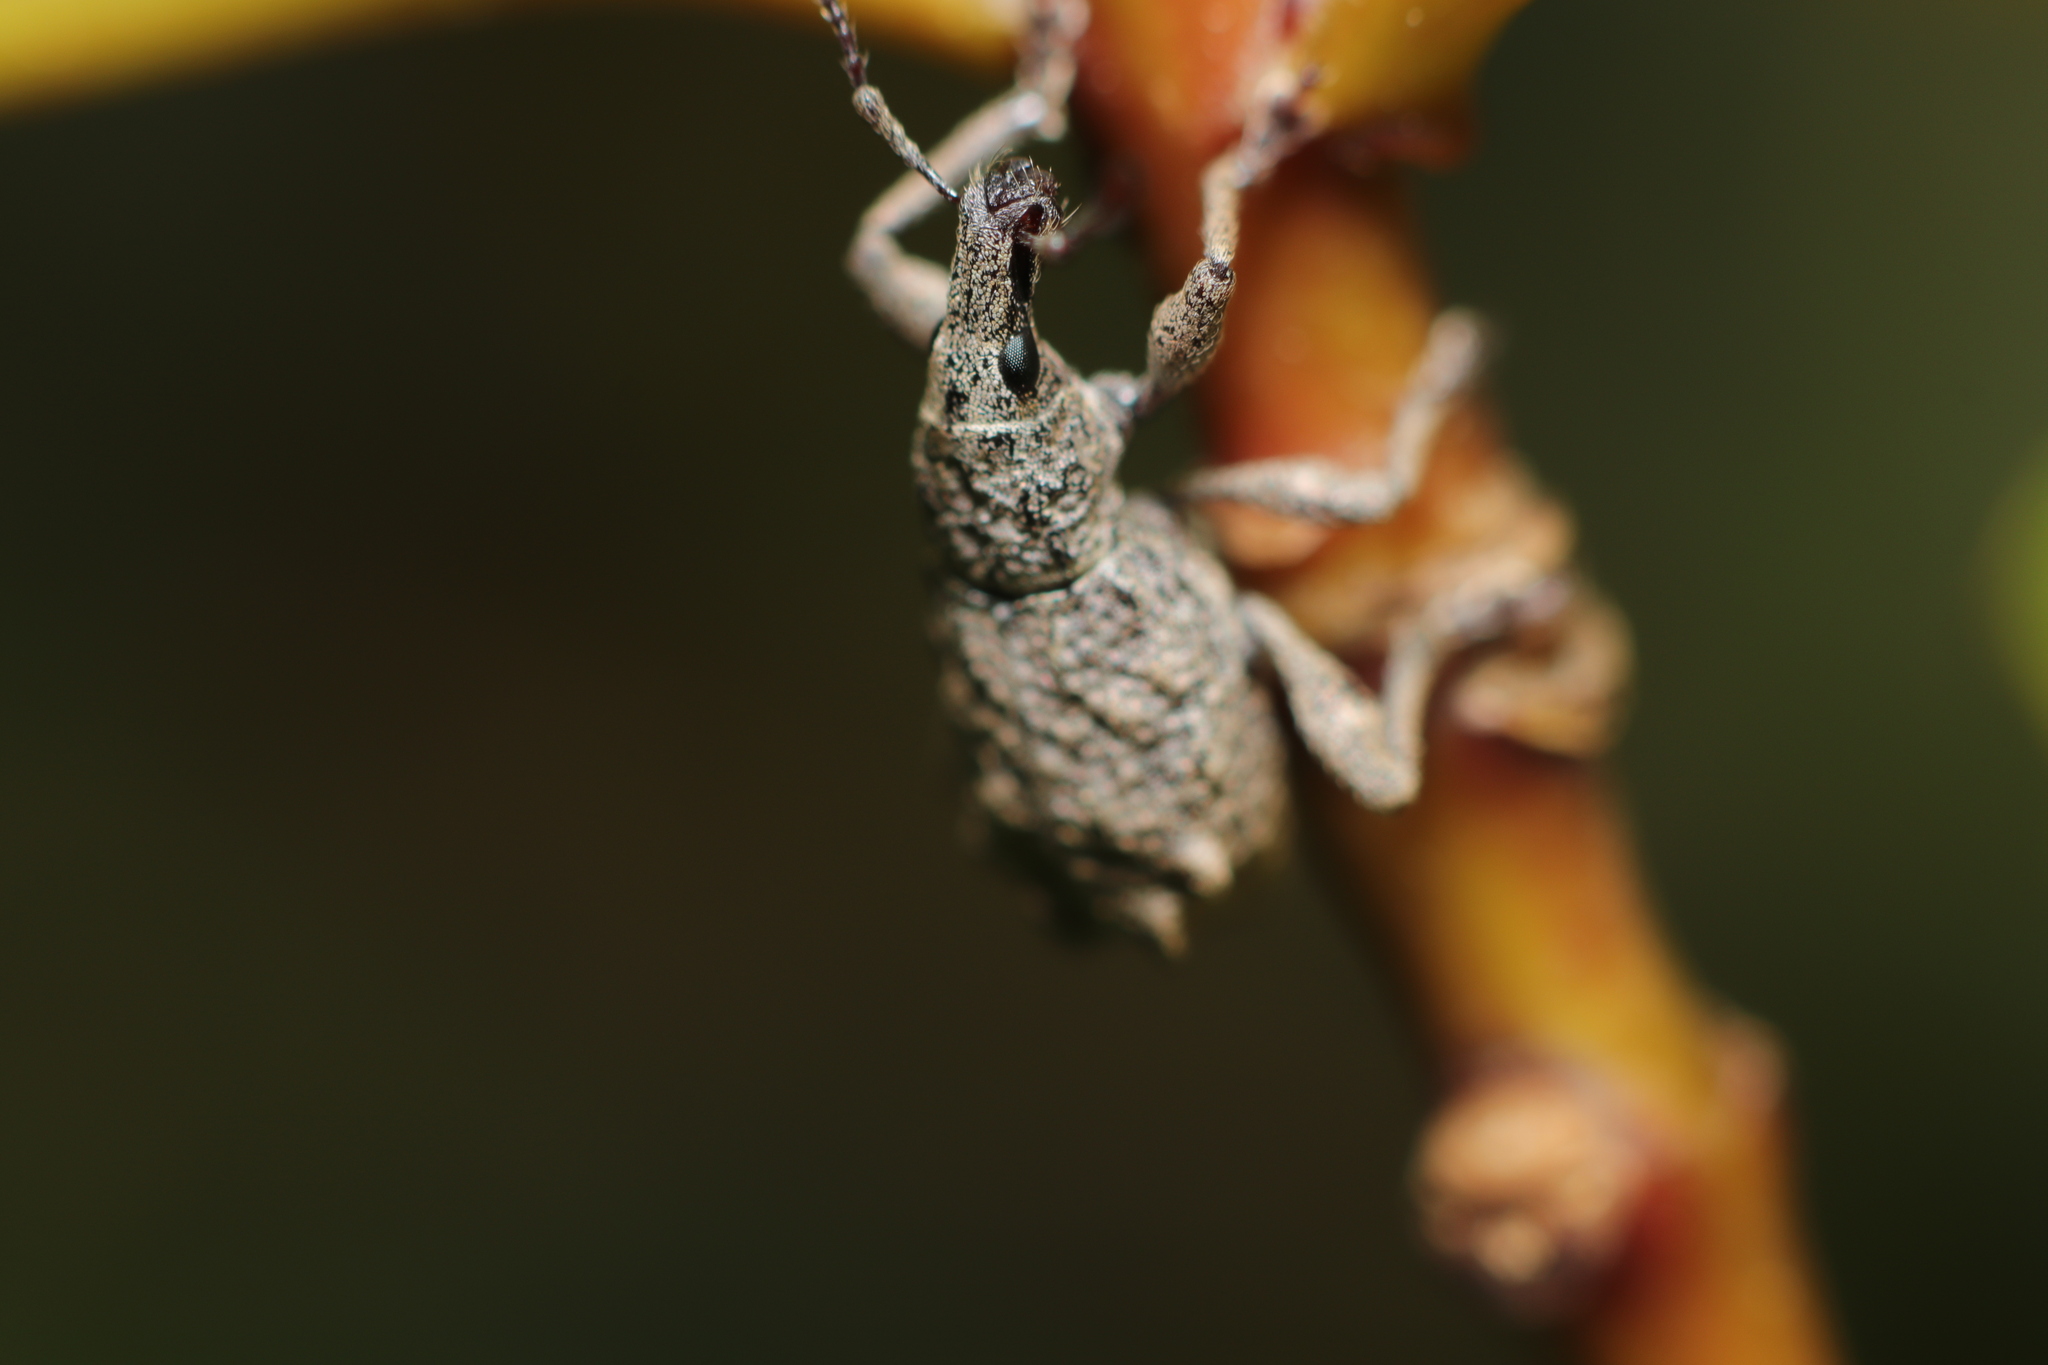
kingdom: Animalia
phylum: Arthropoda
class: Insecta
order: Coleoptera
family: Curculionidae
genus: Catoptes
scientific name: Catoptes censorius
